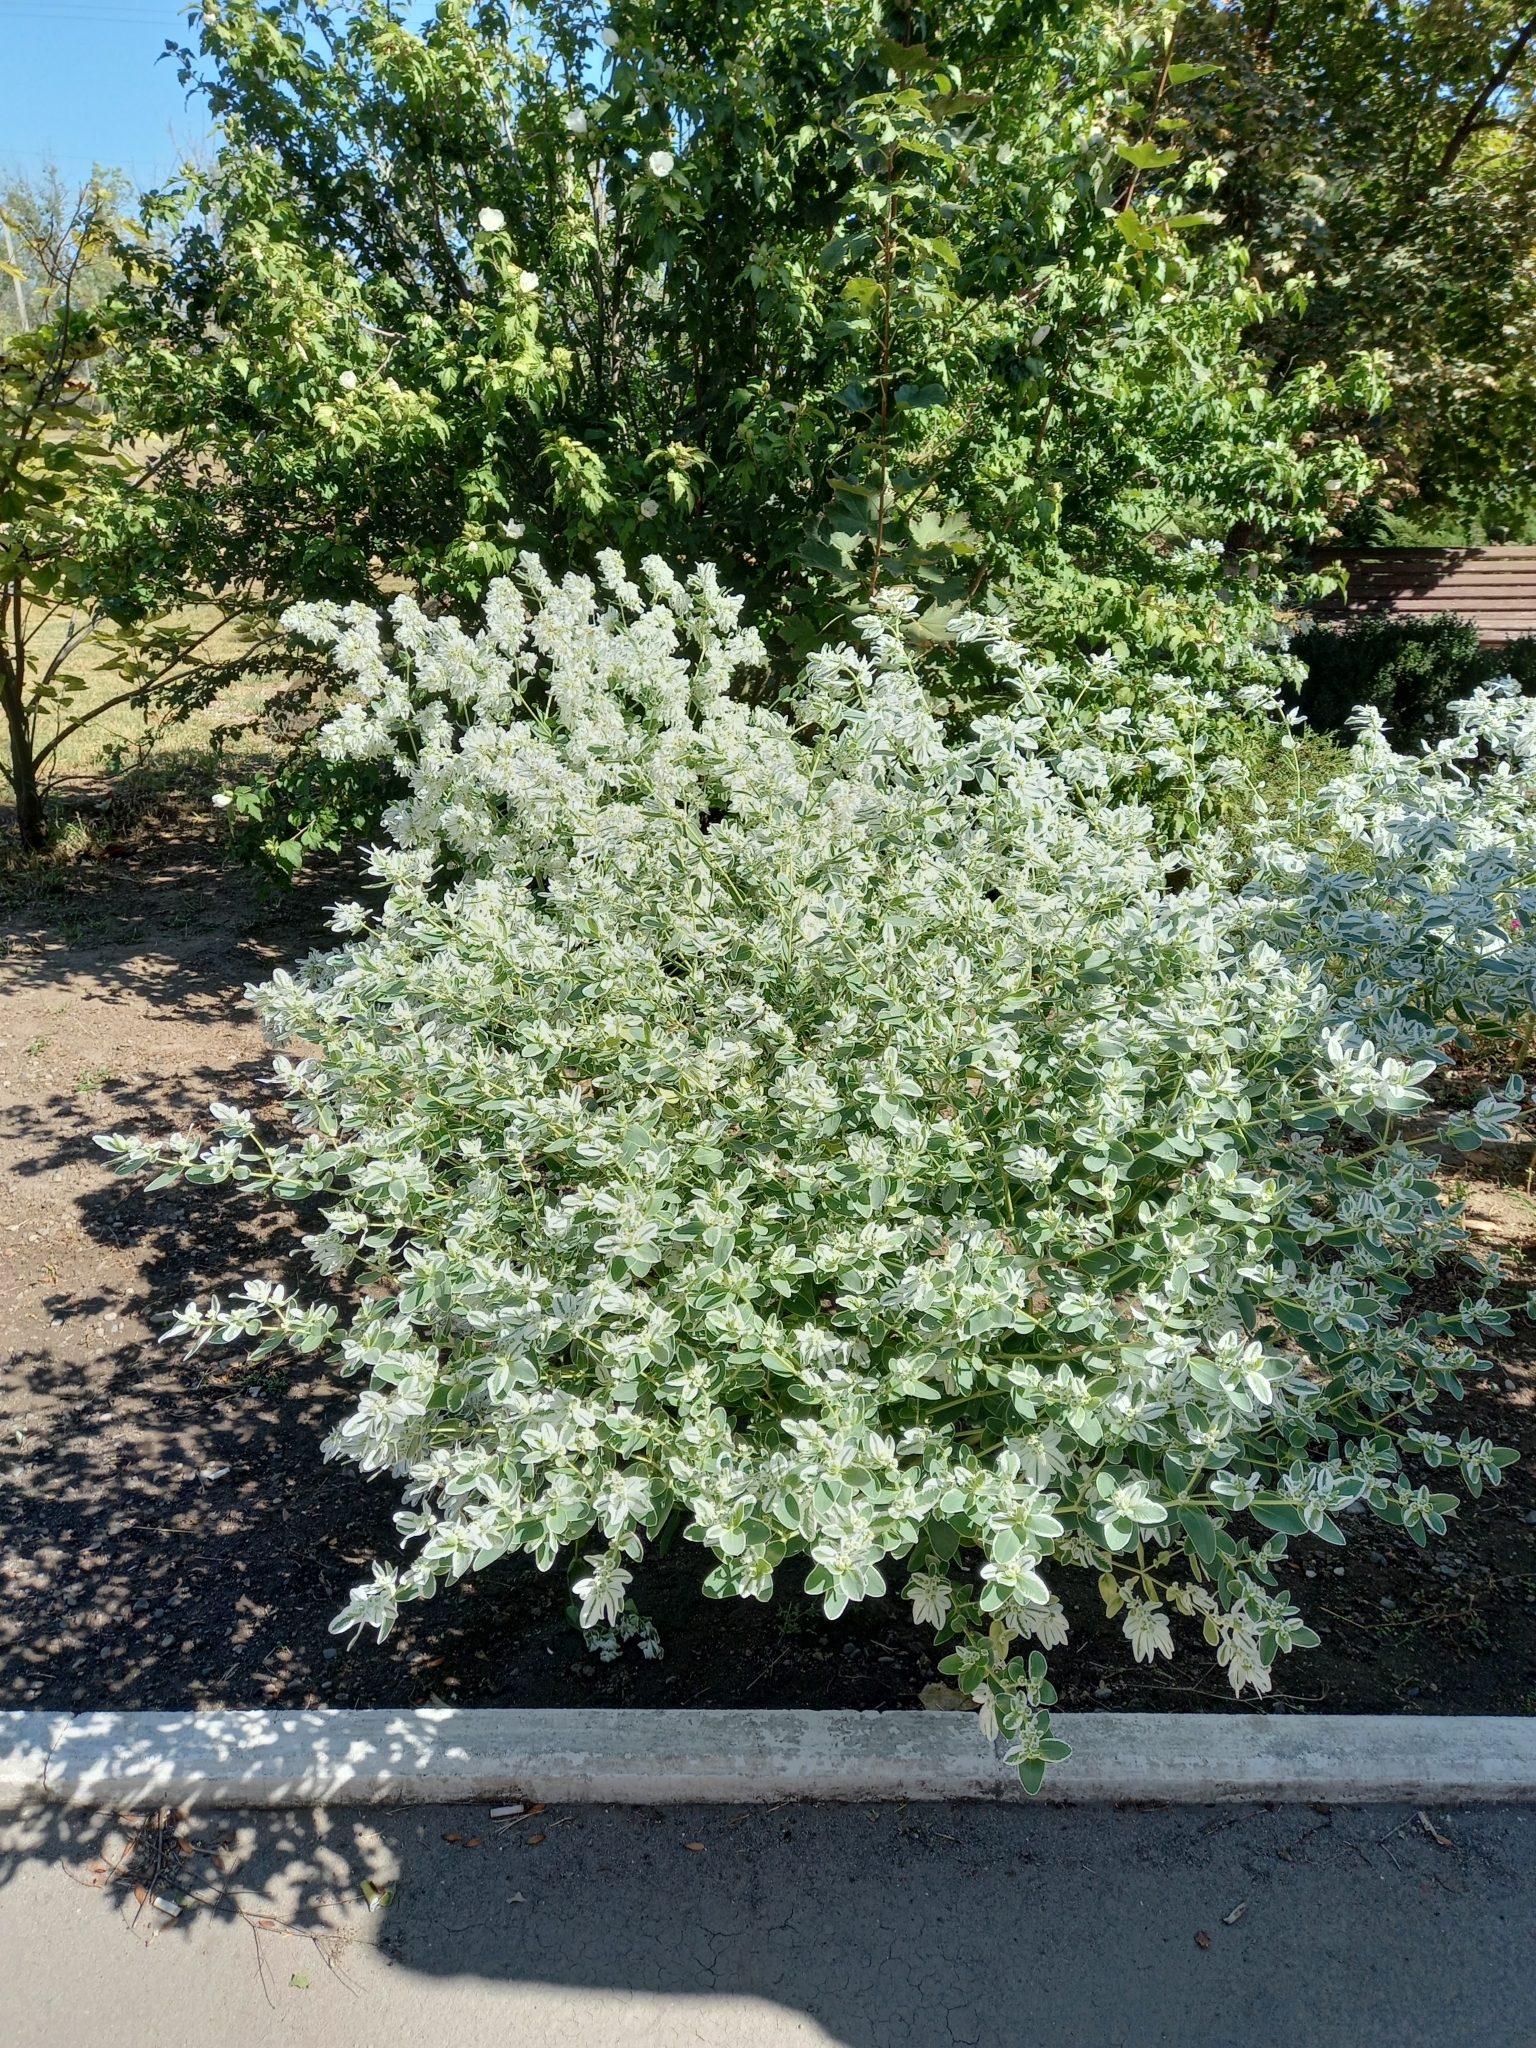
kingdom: Plantae
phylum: Tracheophyta
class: Magnoliopsida
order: Malpighiales
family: Euphorbiaceae
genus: Euphorbia
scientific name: Euphorbia marginata
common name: Ghostweed
